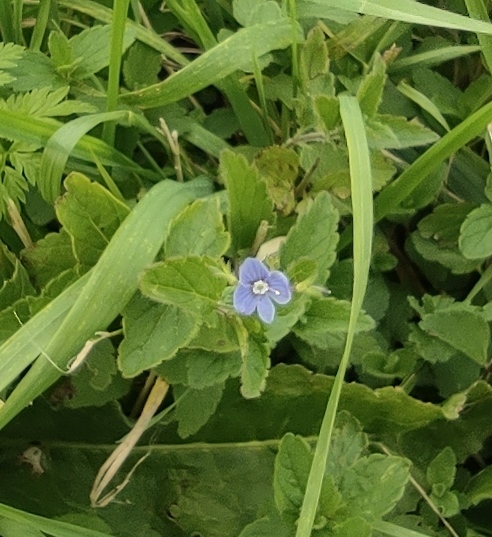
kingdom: Plantae
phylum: Tracheophyta
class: Magnoliopsida
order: Lamiales
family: Plantaginaceae
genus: Veronica
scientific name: Veronica chamaedrys
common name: Germander speedwell
